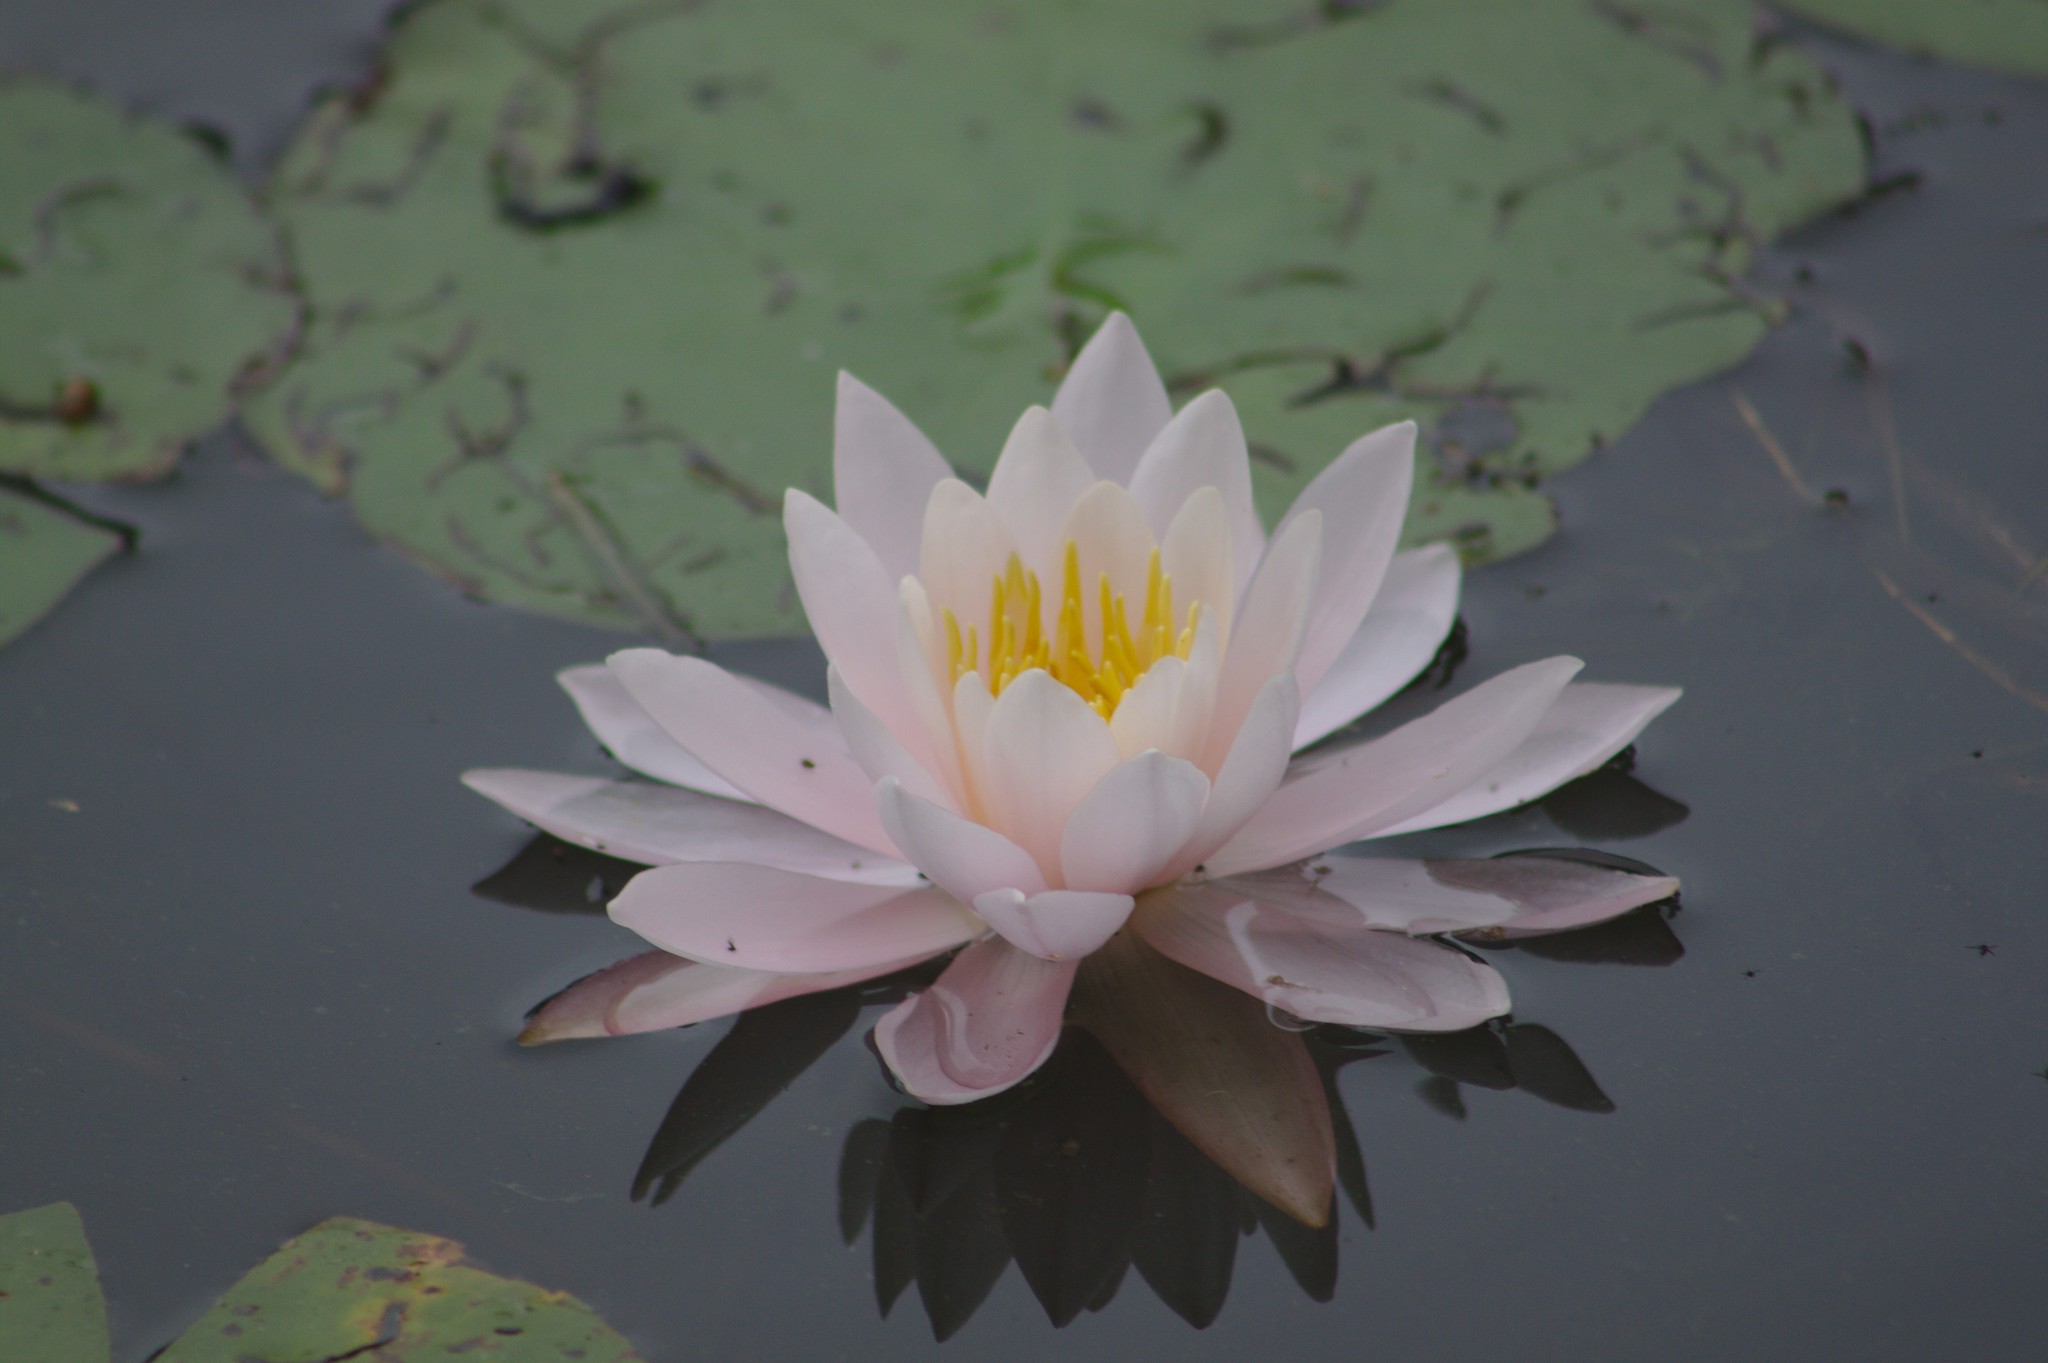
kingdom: Plantae
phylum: Tracheophyta
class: Magnoliopsida
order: Nymphaeales
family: Nymphaeaceae
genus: Nymphaea
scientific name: Nymphaea odorata
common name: Fragrant water-lily
